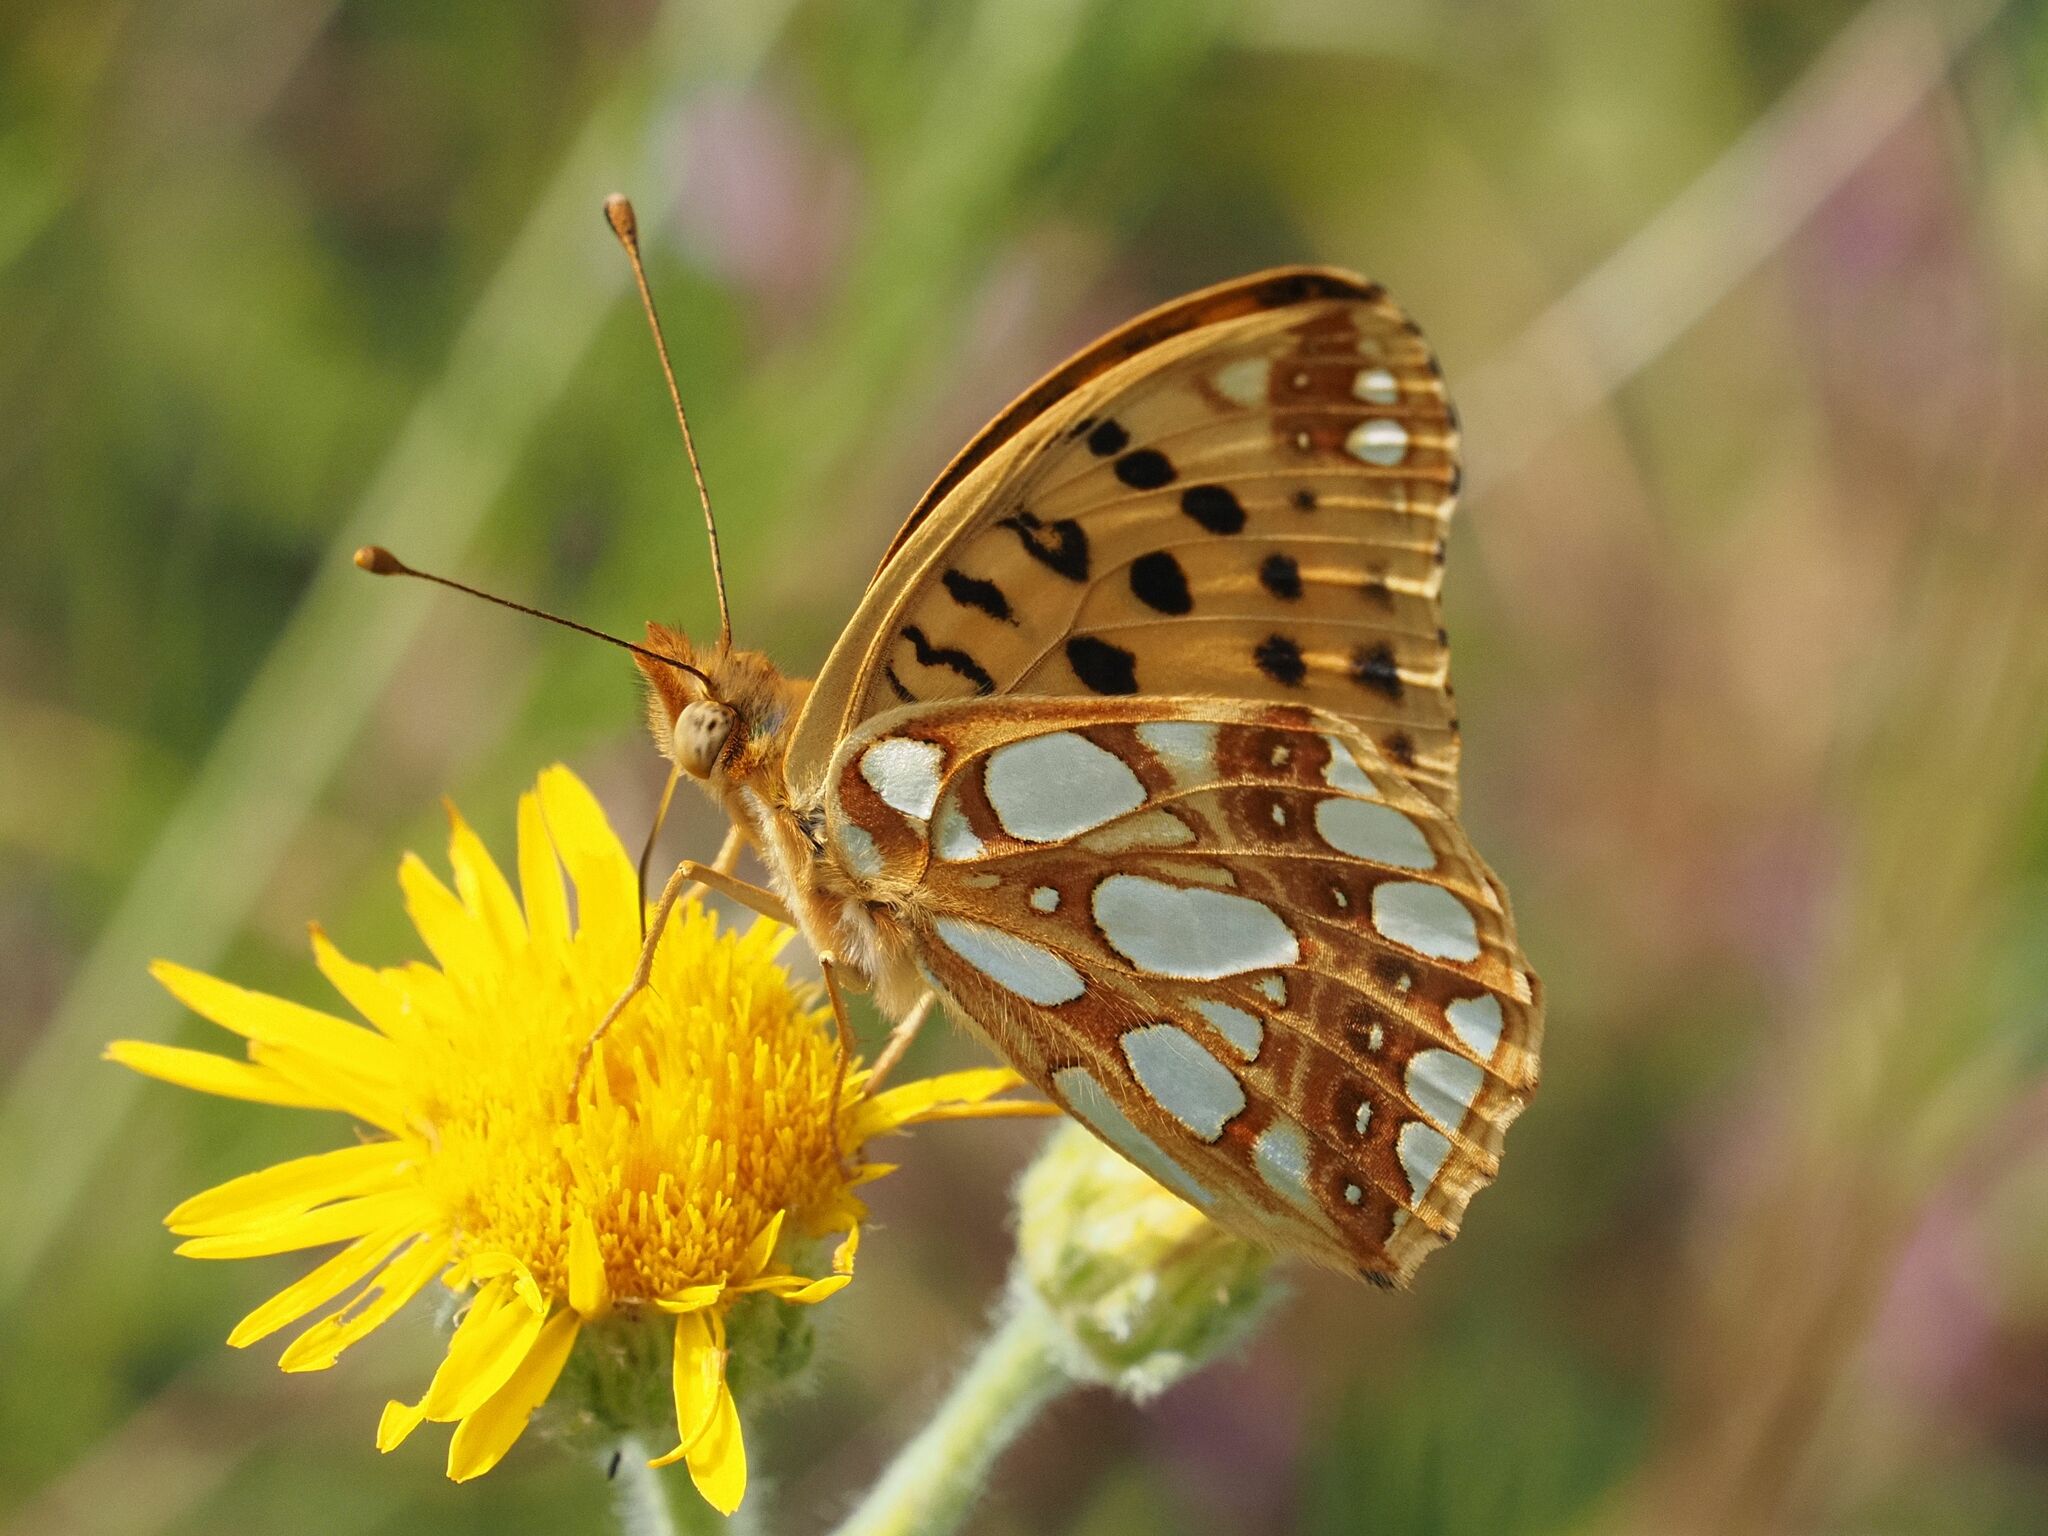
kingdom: Animalia
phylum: Arthropoda
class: Insecta
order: Lepidoptera
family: Nymphalidae
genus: Issoria
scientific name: Issoria lathonia
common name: Queen of spain fritillary
